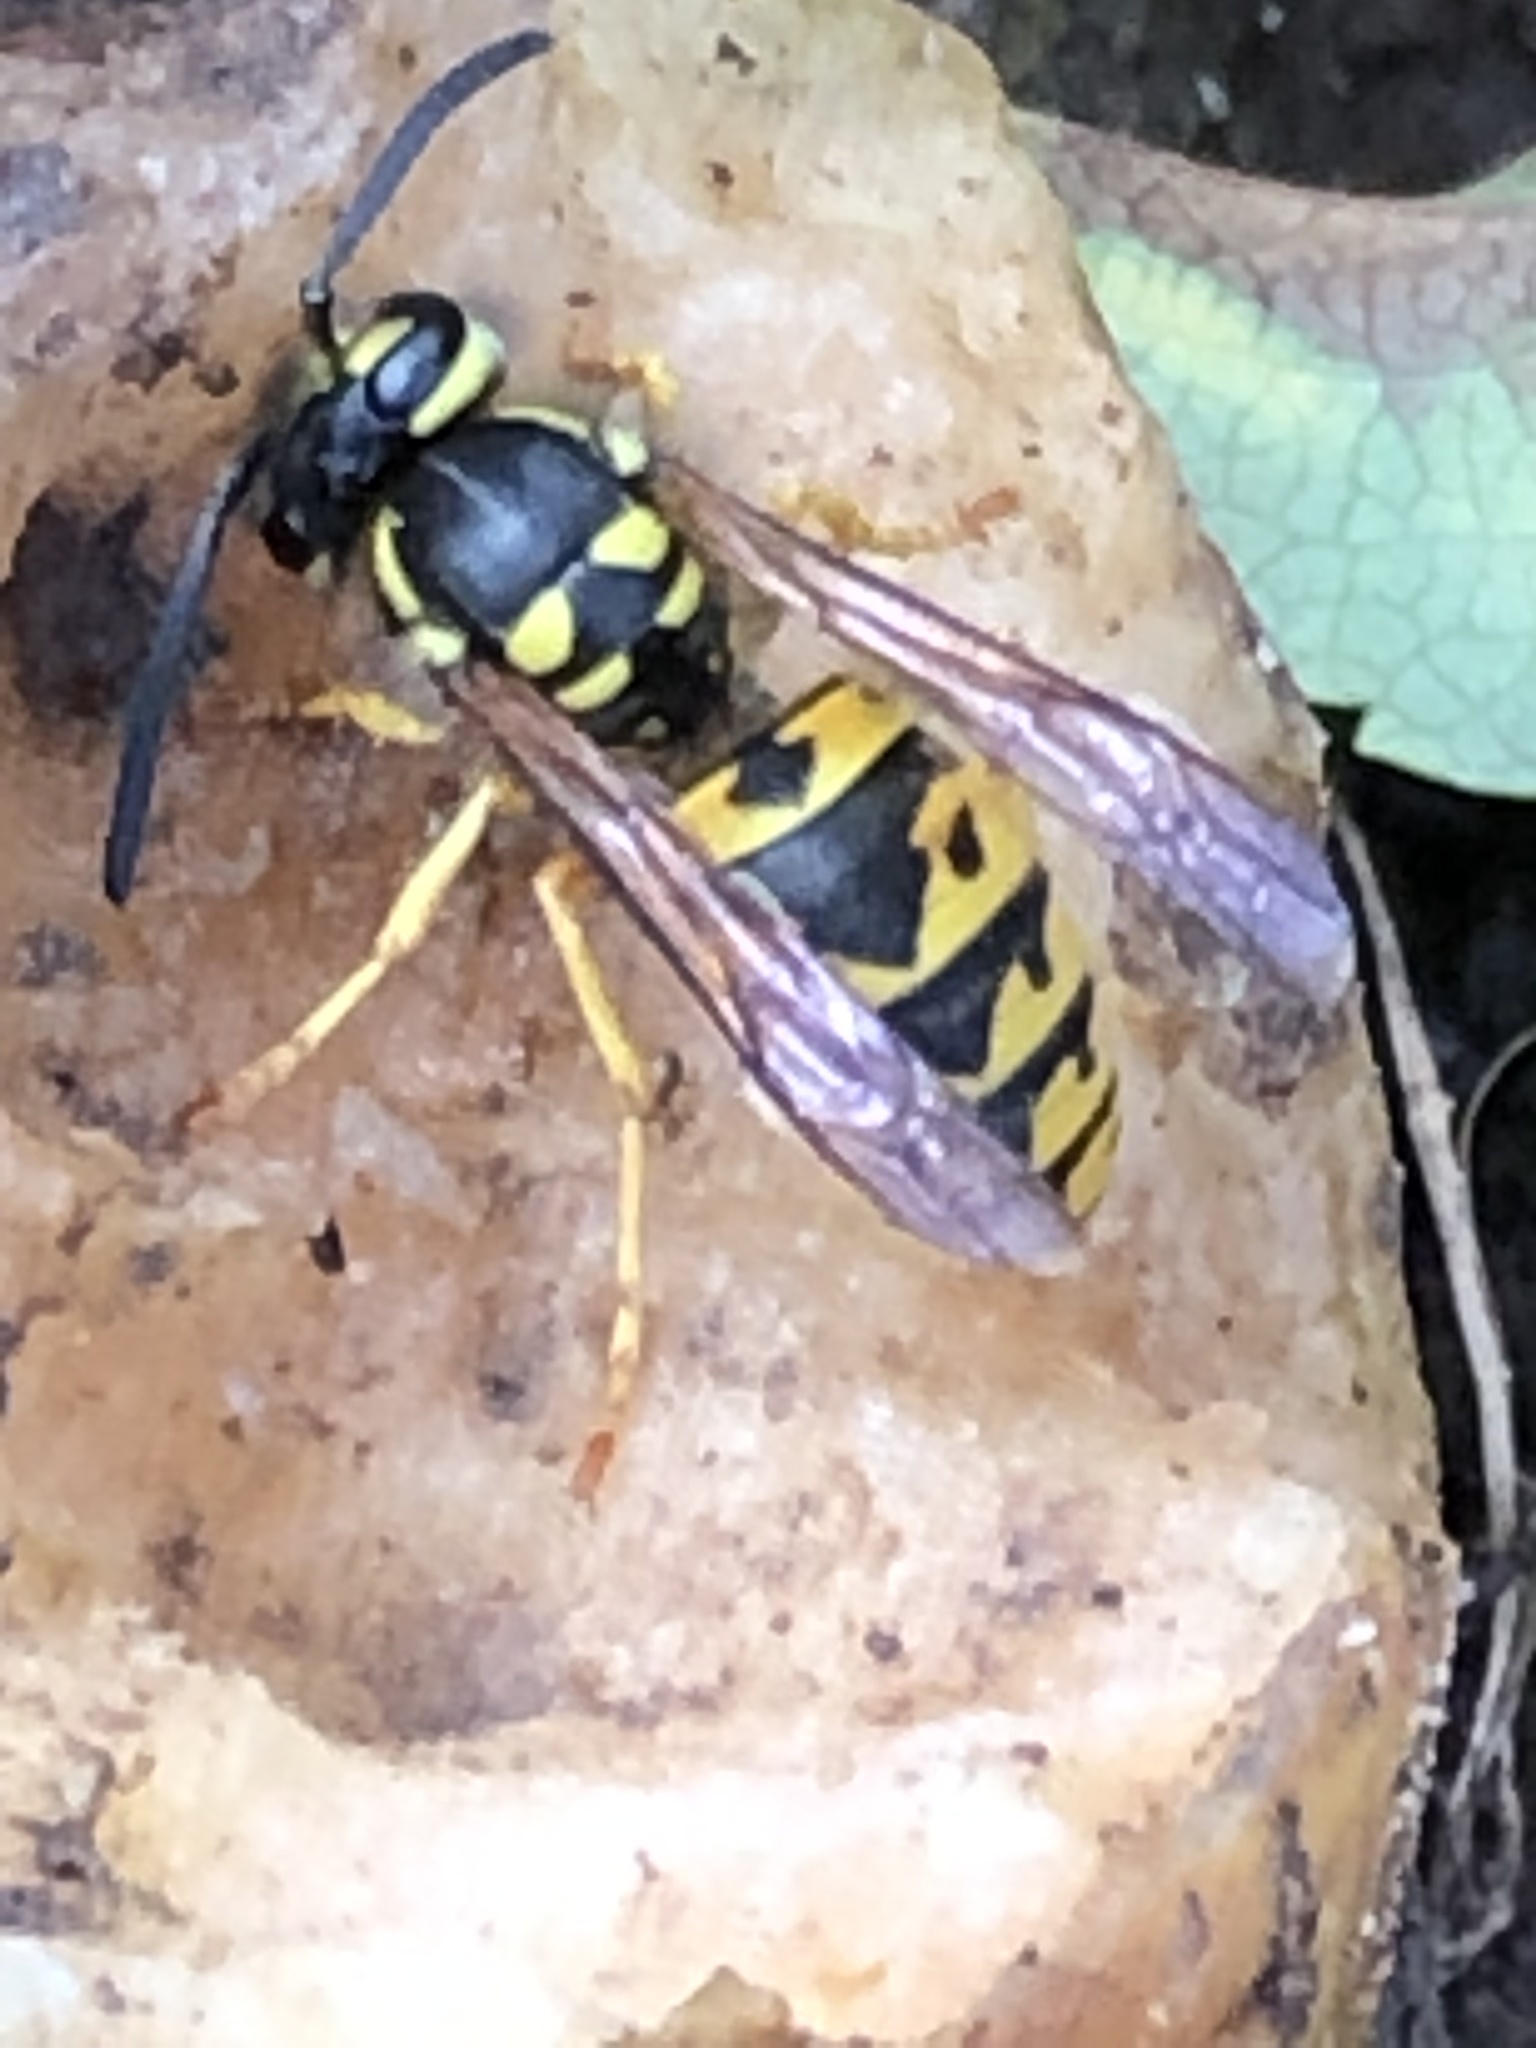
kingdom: Animalia
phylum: Arthropoda
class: Insecta
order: Hymenoptera
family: Vespidae
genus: Vespula
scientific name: Vespula germanica
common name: German wasp
